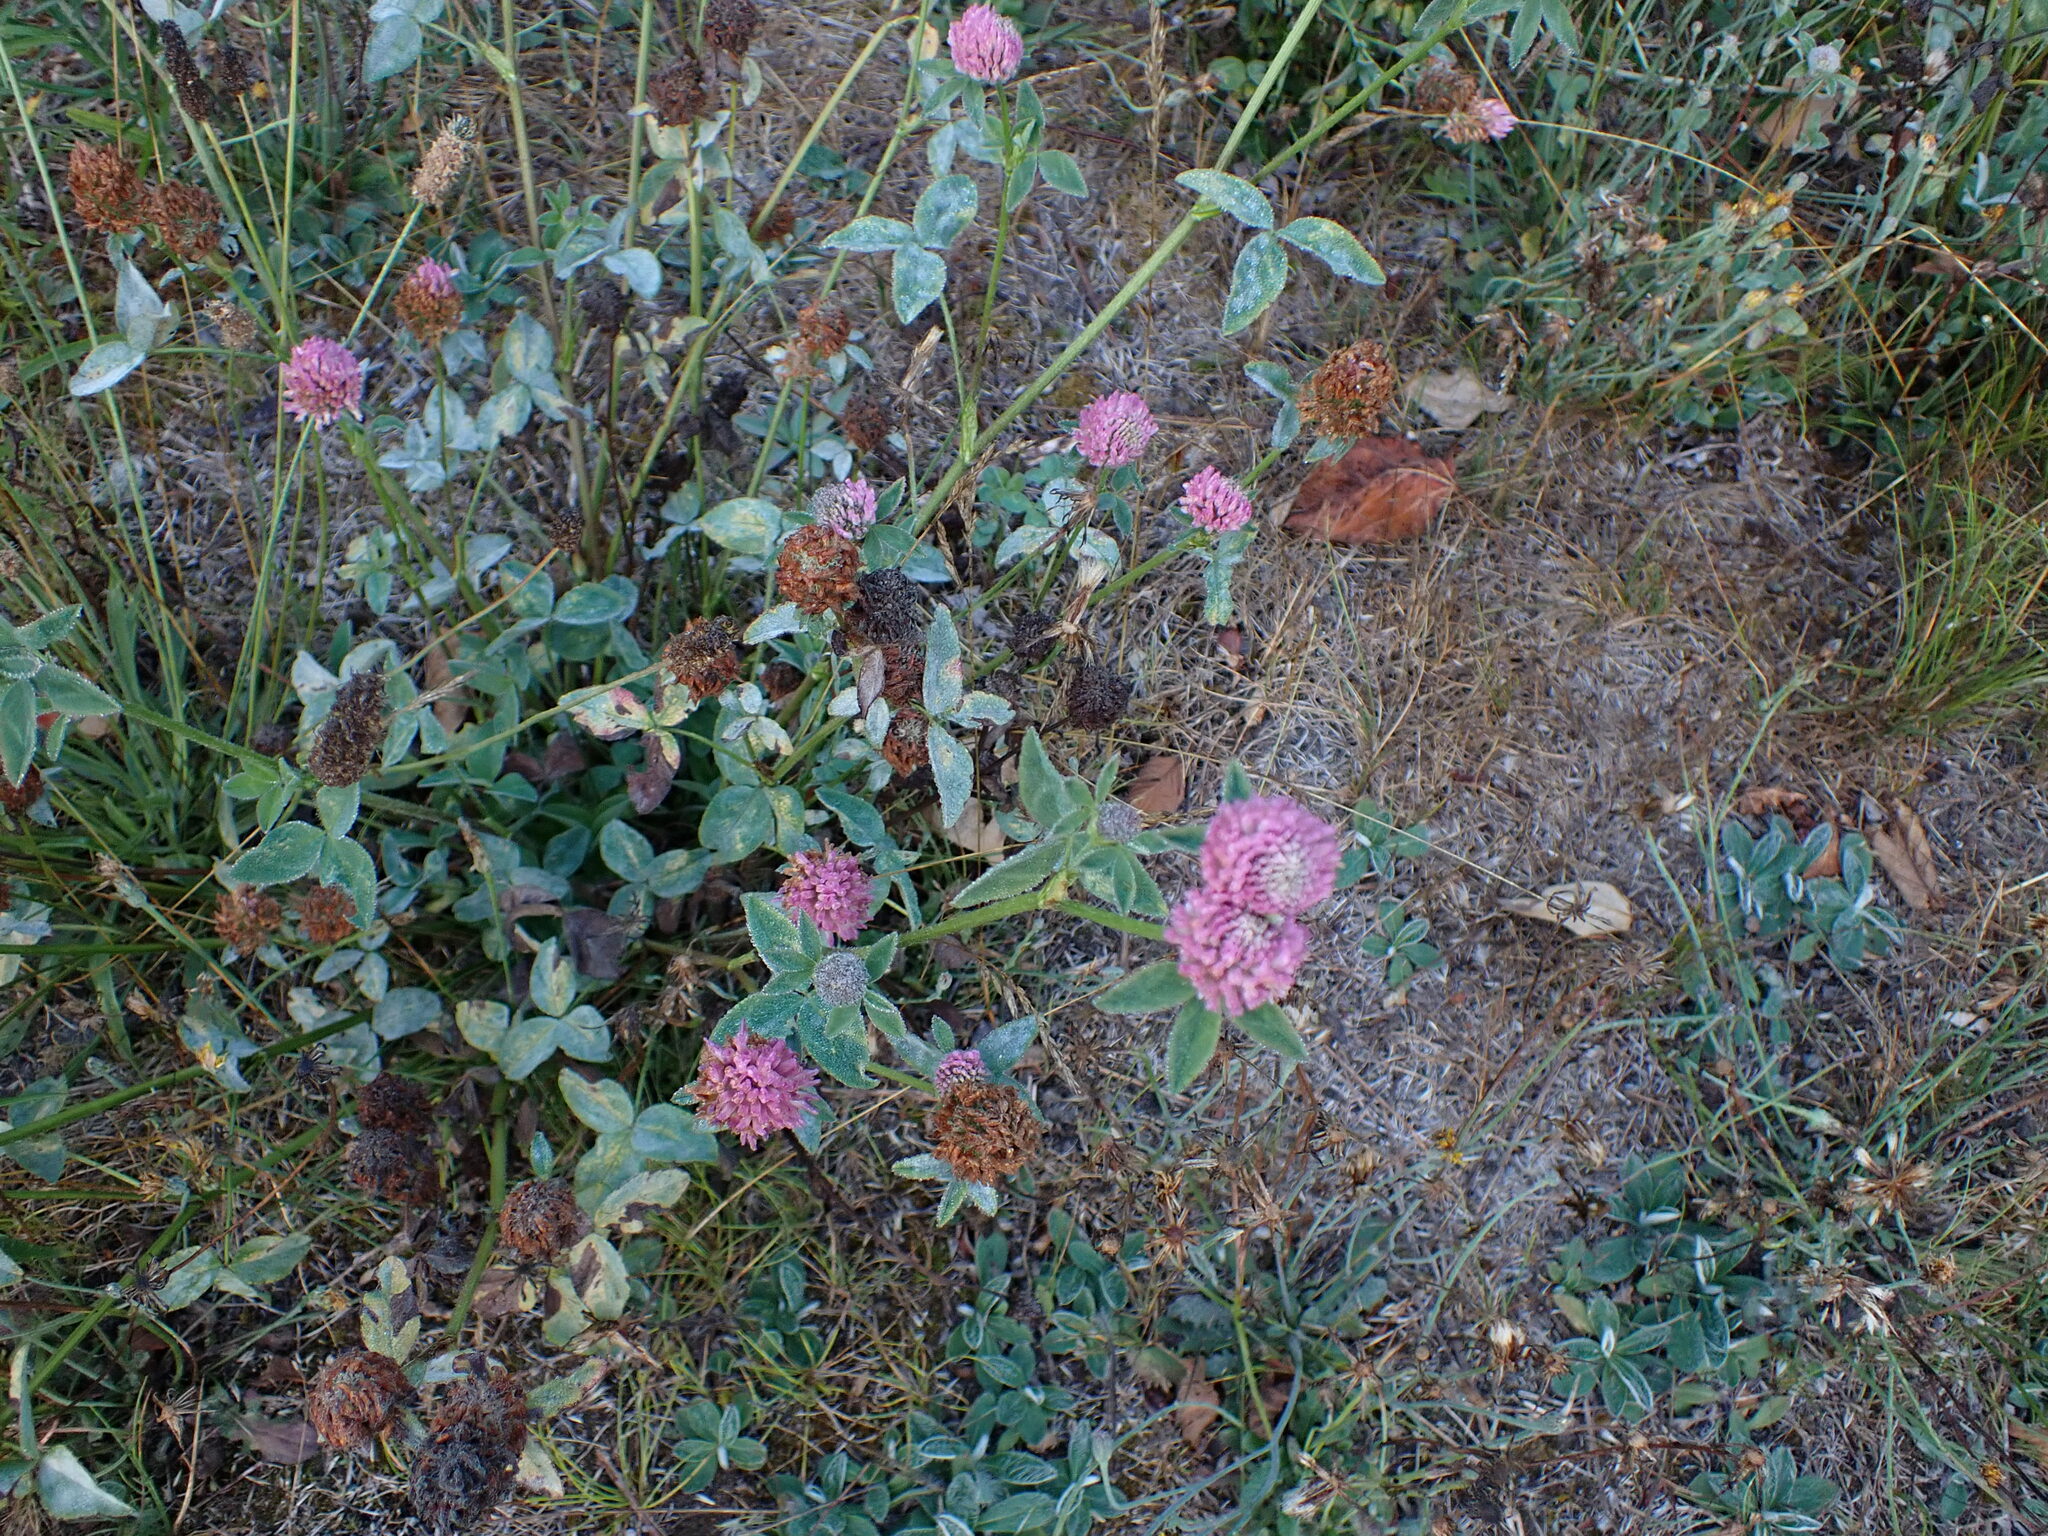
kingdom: Plantae
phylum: Tracheophyta
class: Magnoliopsida
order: Ericales
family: Balsaminaceae
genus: Impatiens
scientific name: Impatiens glandulifera
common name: Himalayan balsam
